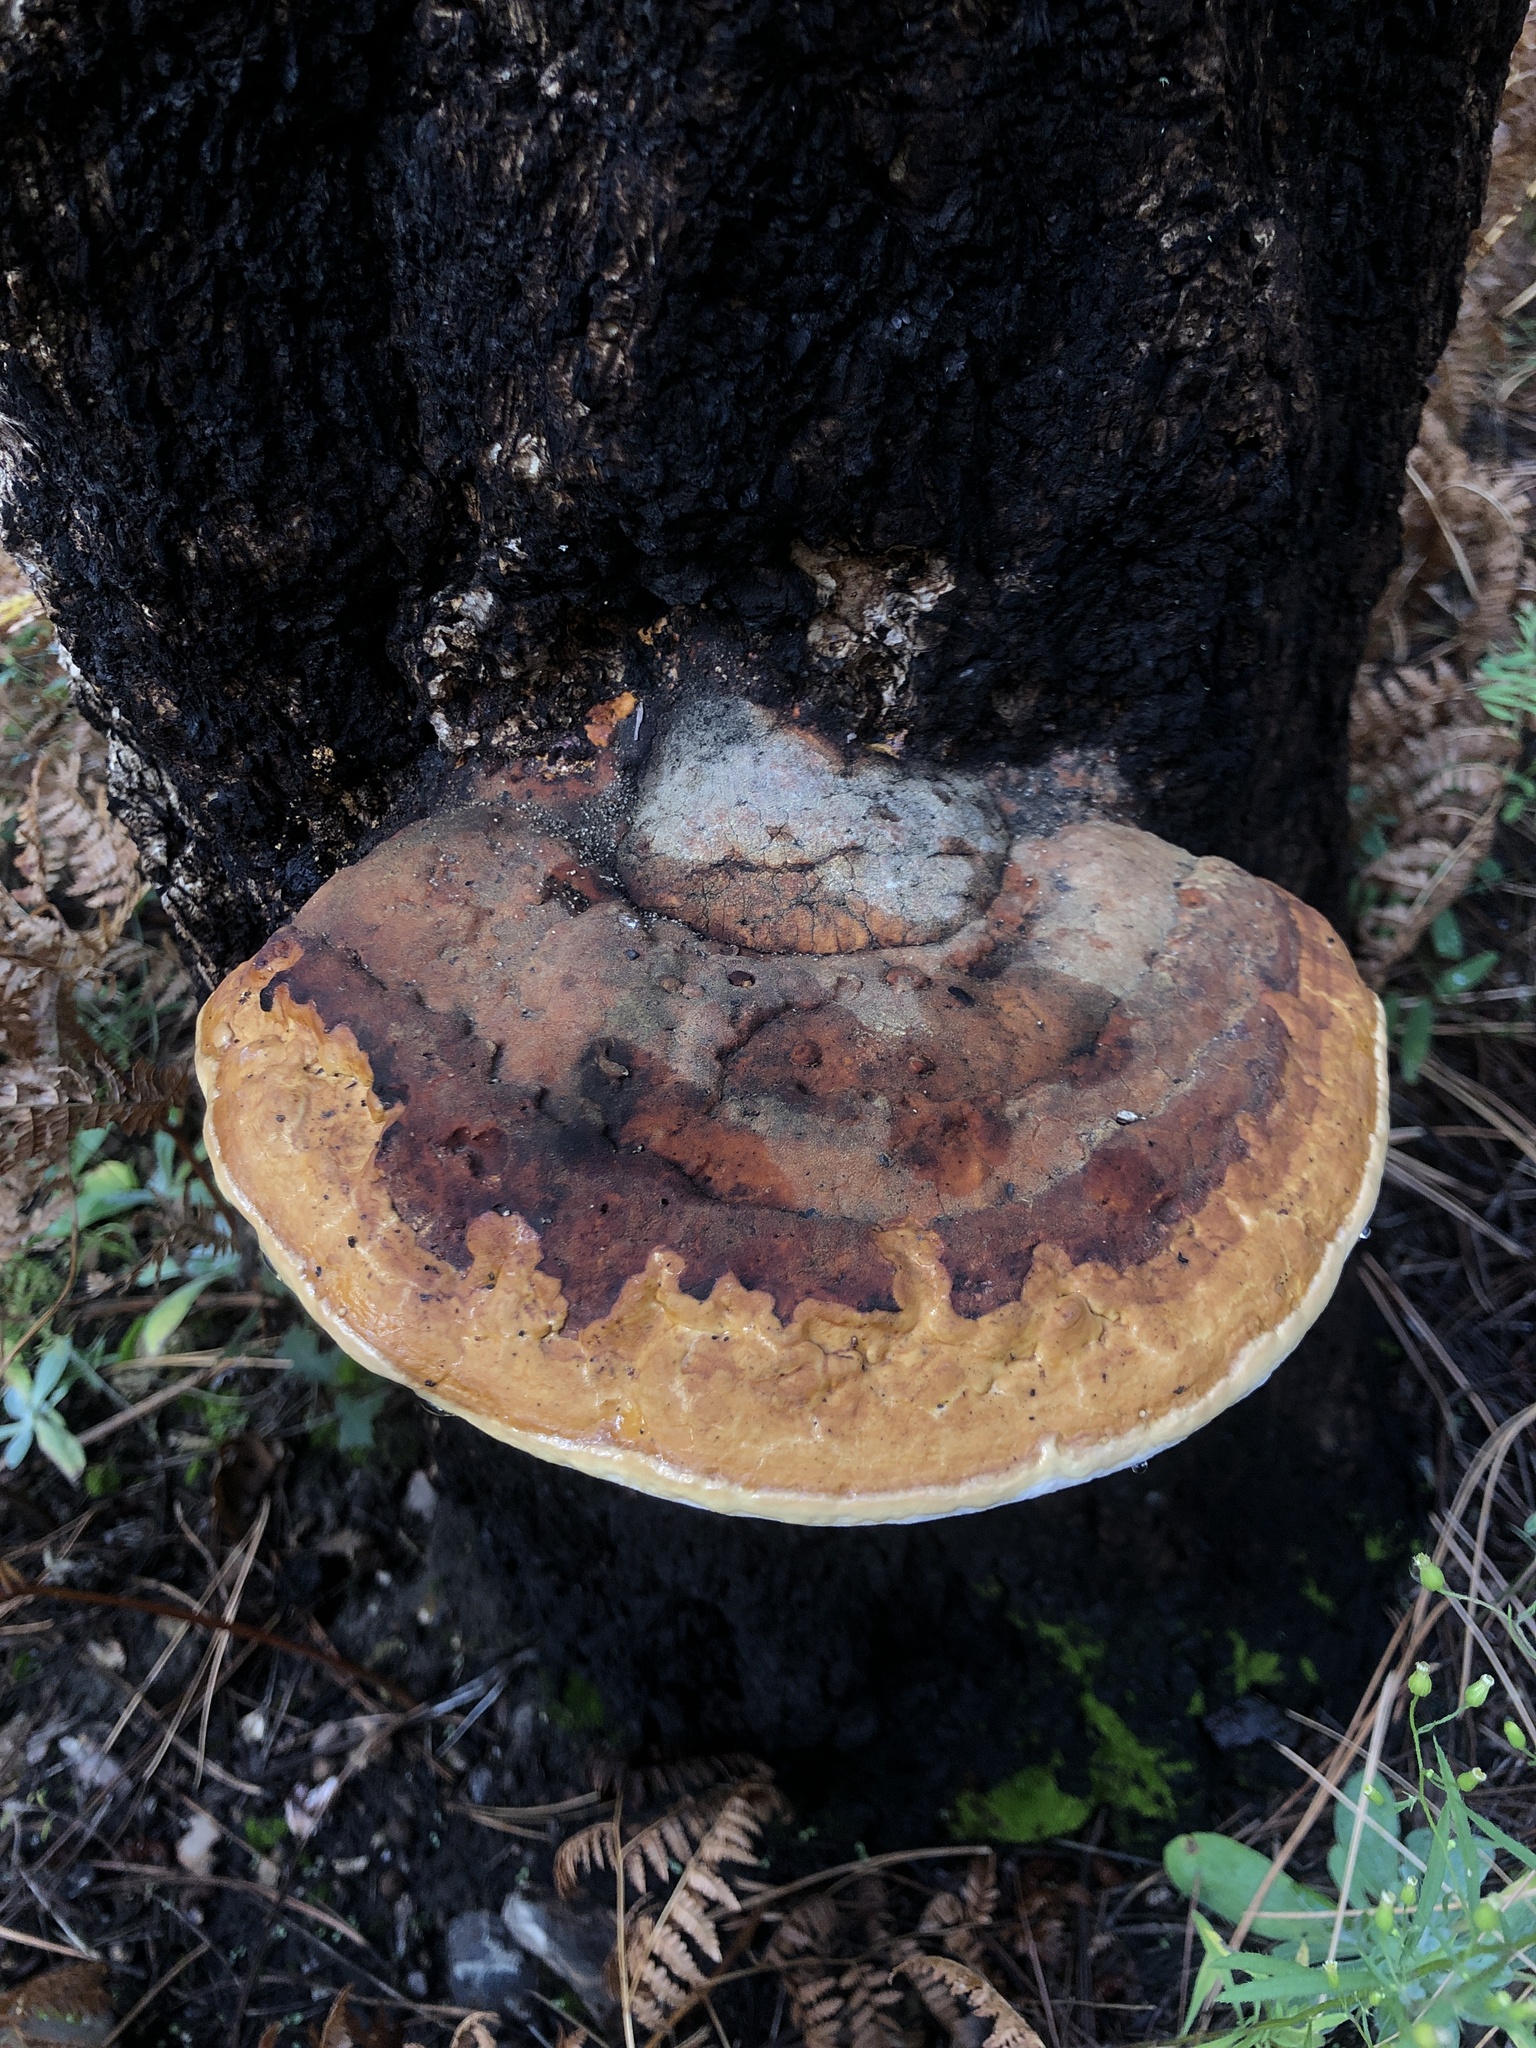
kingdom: Fungi
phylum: Basidiomycota
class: Agaricomycetes
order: Polyporales
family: Fomitopsidaceae
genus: Fomitopsis
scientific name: Fomitopsis schrenkii
